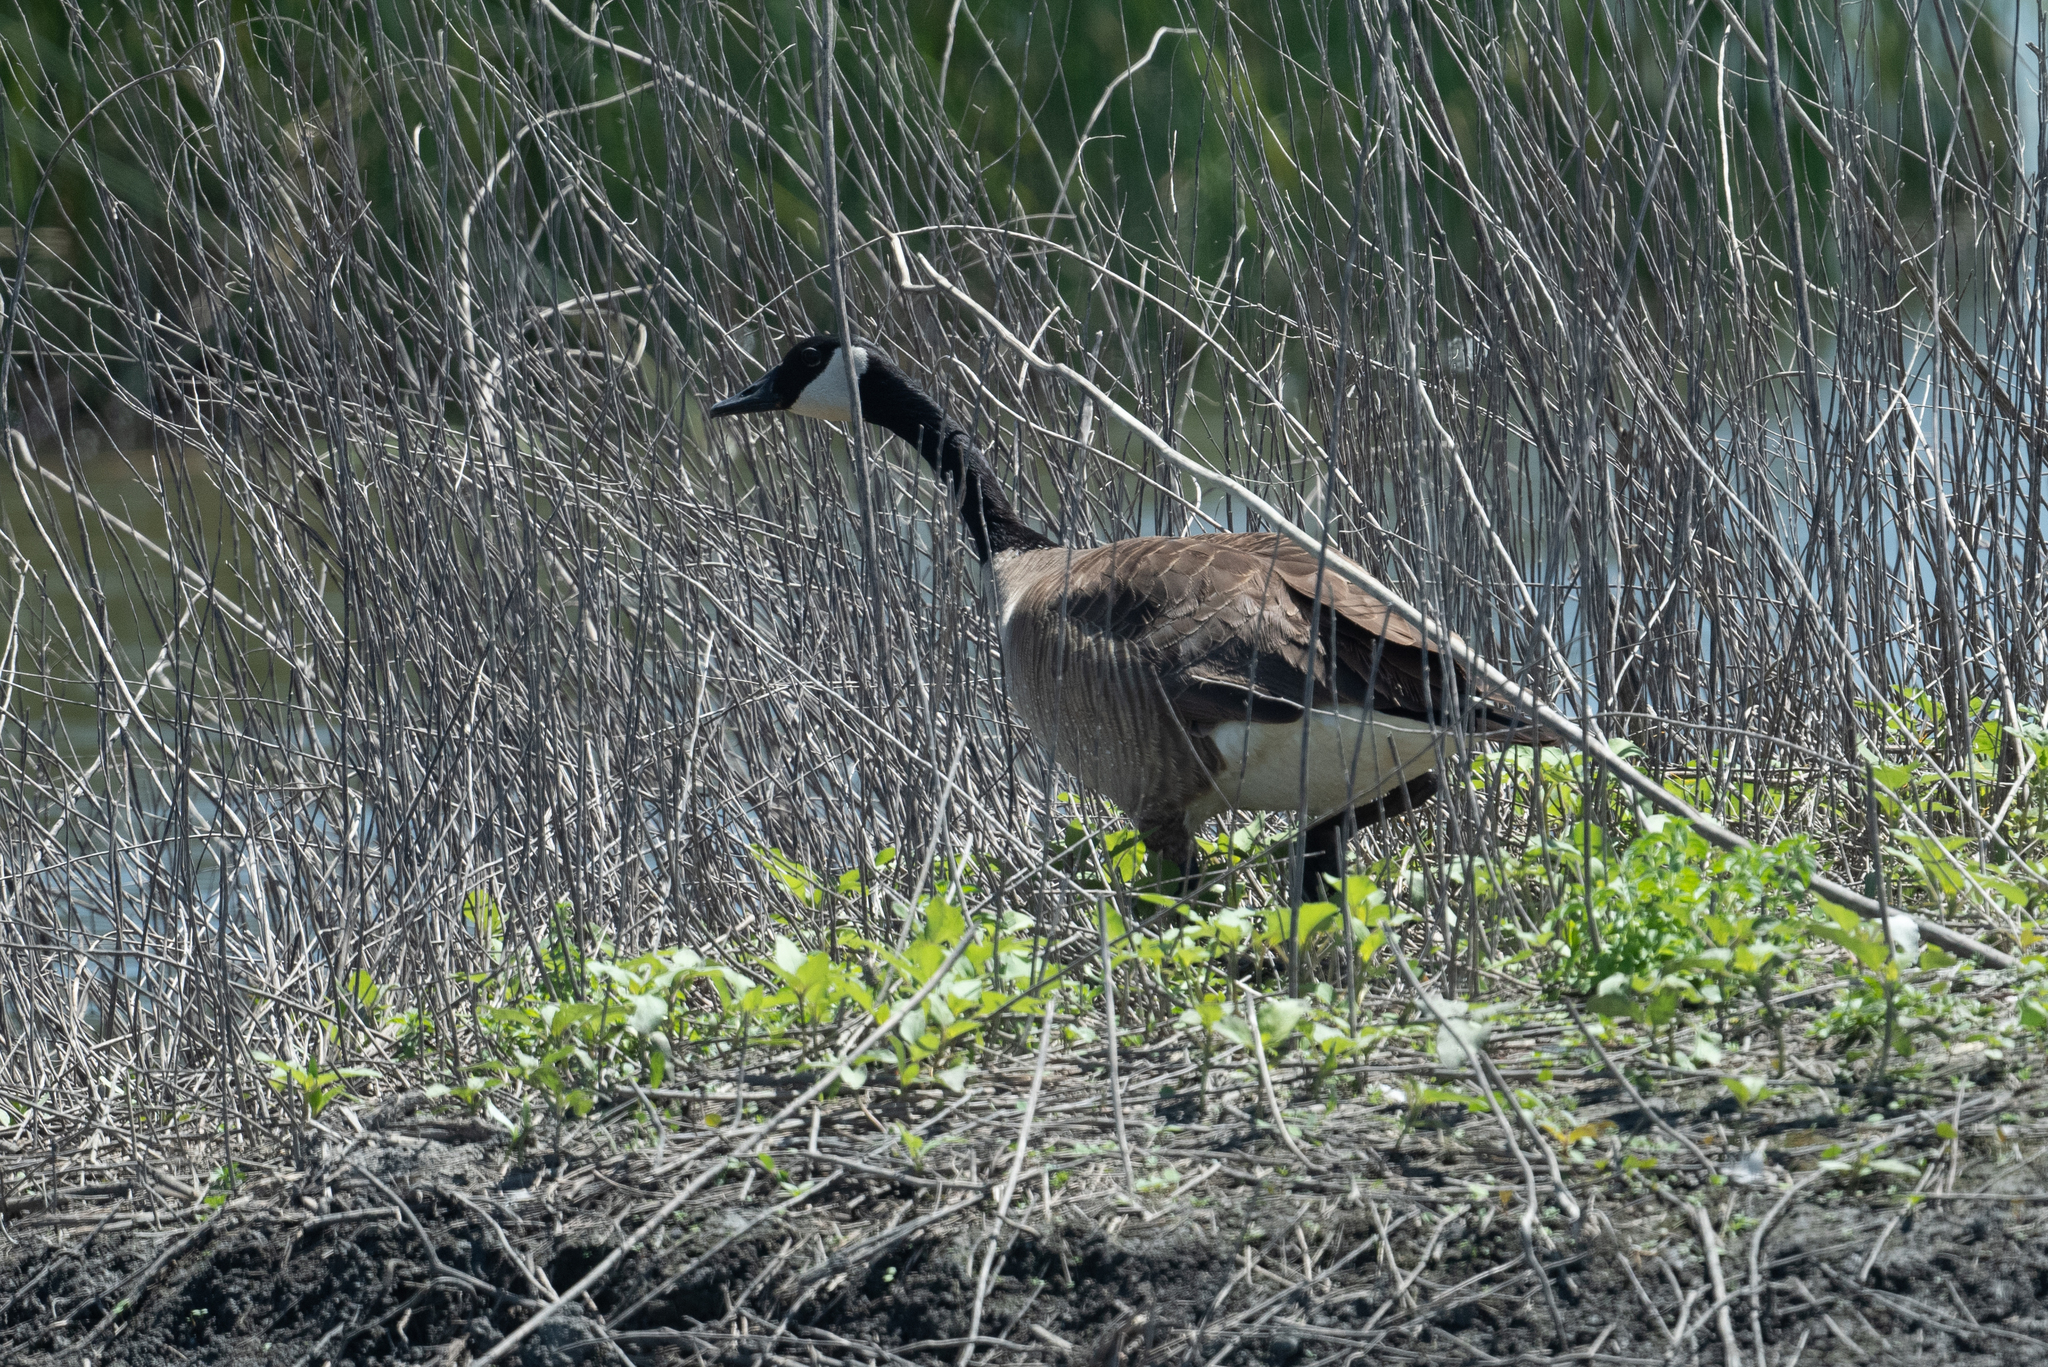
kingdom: Animalia
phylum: Chordata
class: Aves
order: Anseriformes
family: Anatidae
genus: Branta
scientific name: Branta canadensis
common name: Canada goose
